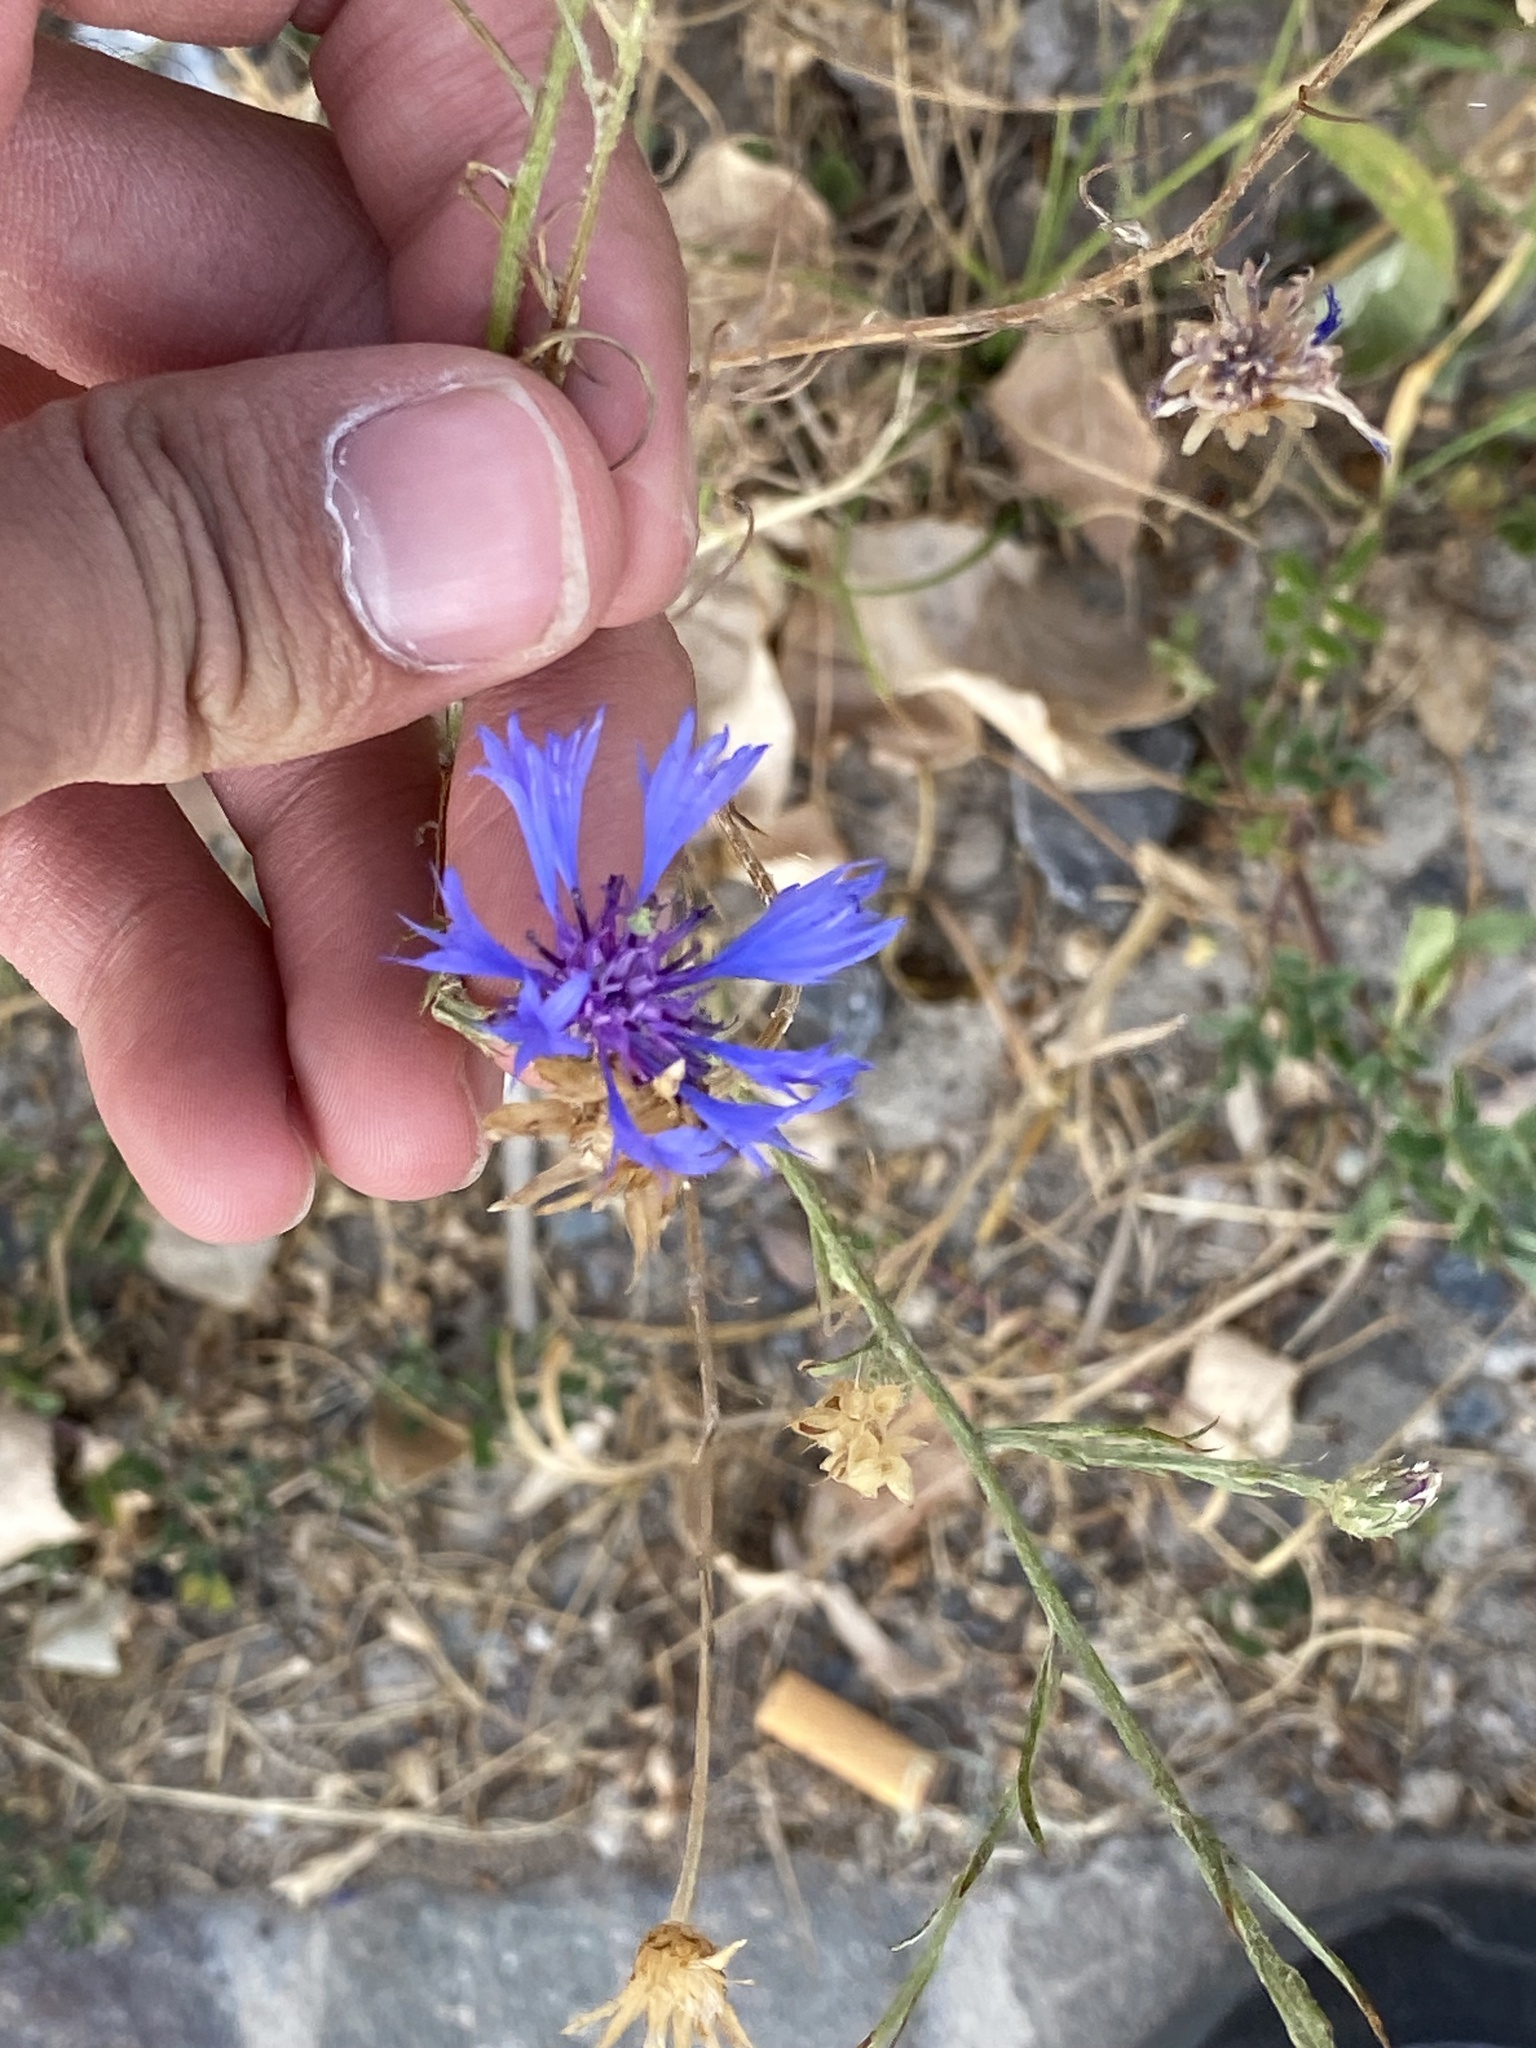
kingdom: Plantae
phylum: Tracheophyta
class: Magnoliopsida
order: Asterales
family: Asteraceae
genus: Centaurea
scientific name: Centaurea cyanus
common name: Cornflower
